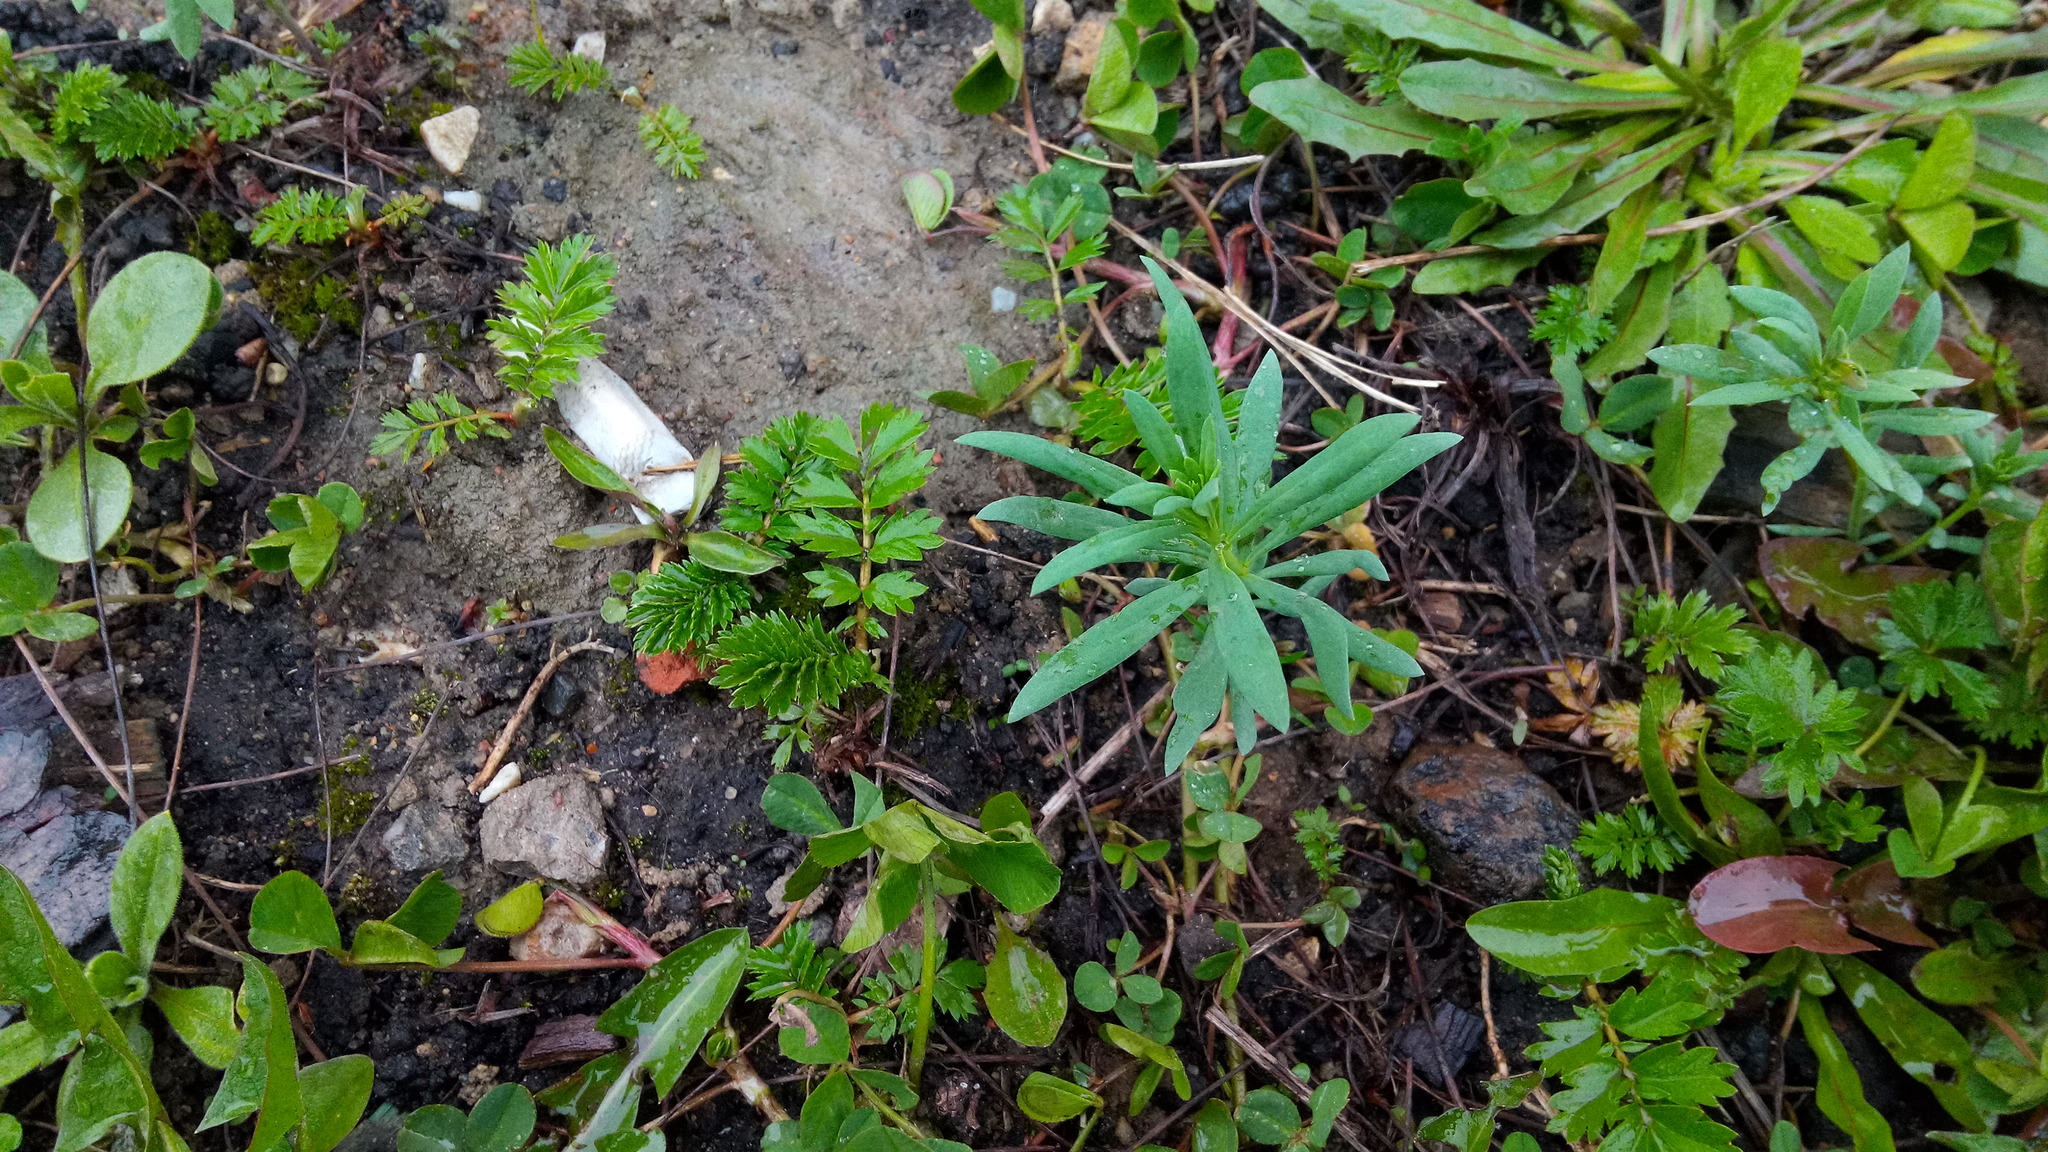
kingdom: Plantae
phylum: Tracheophyta
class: Magnoliopsida
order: Lamiales
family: Plantaginaceae
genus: Linaria
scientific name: Linaria vulgaris
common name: Butter and eggs
